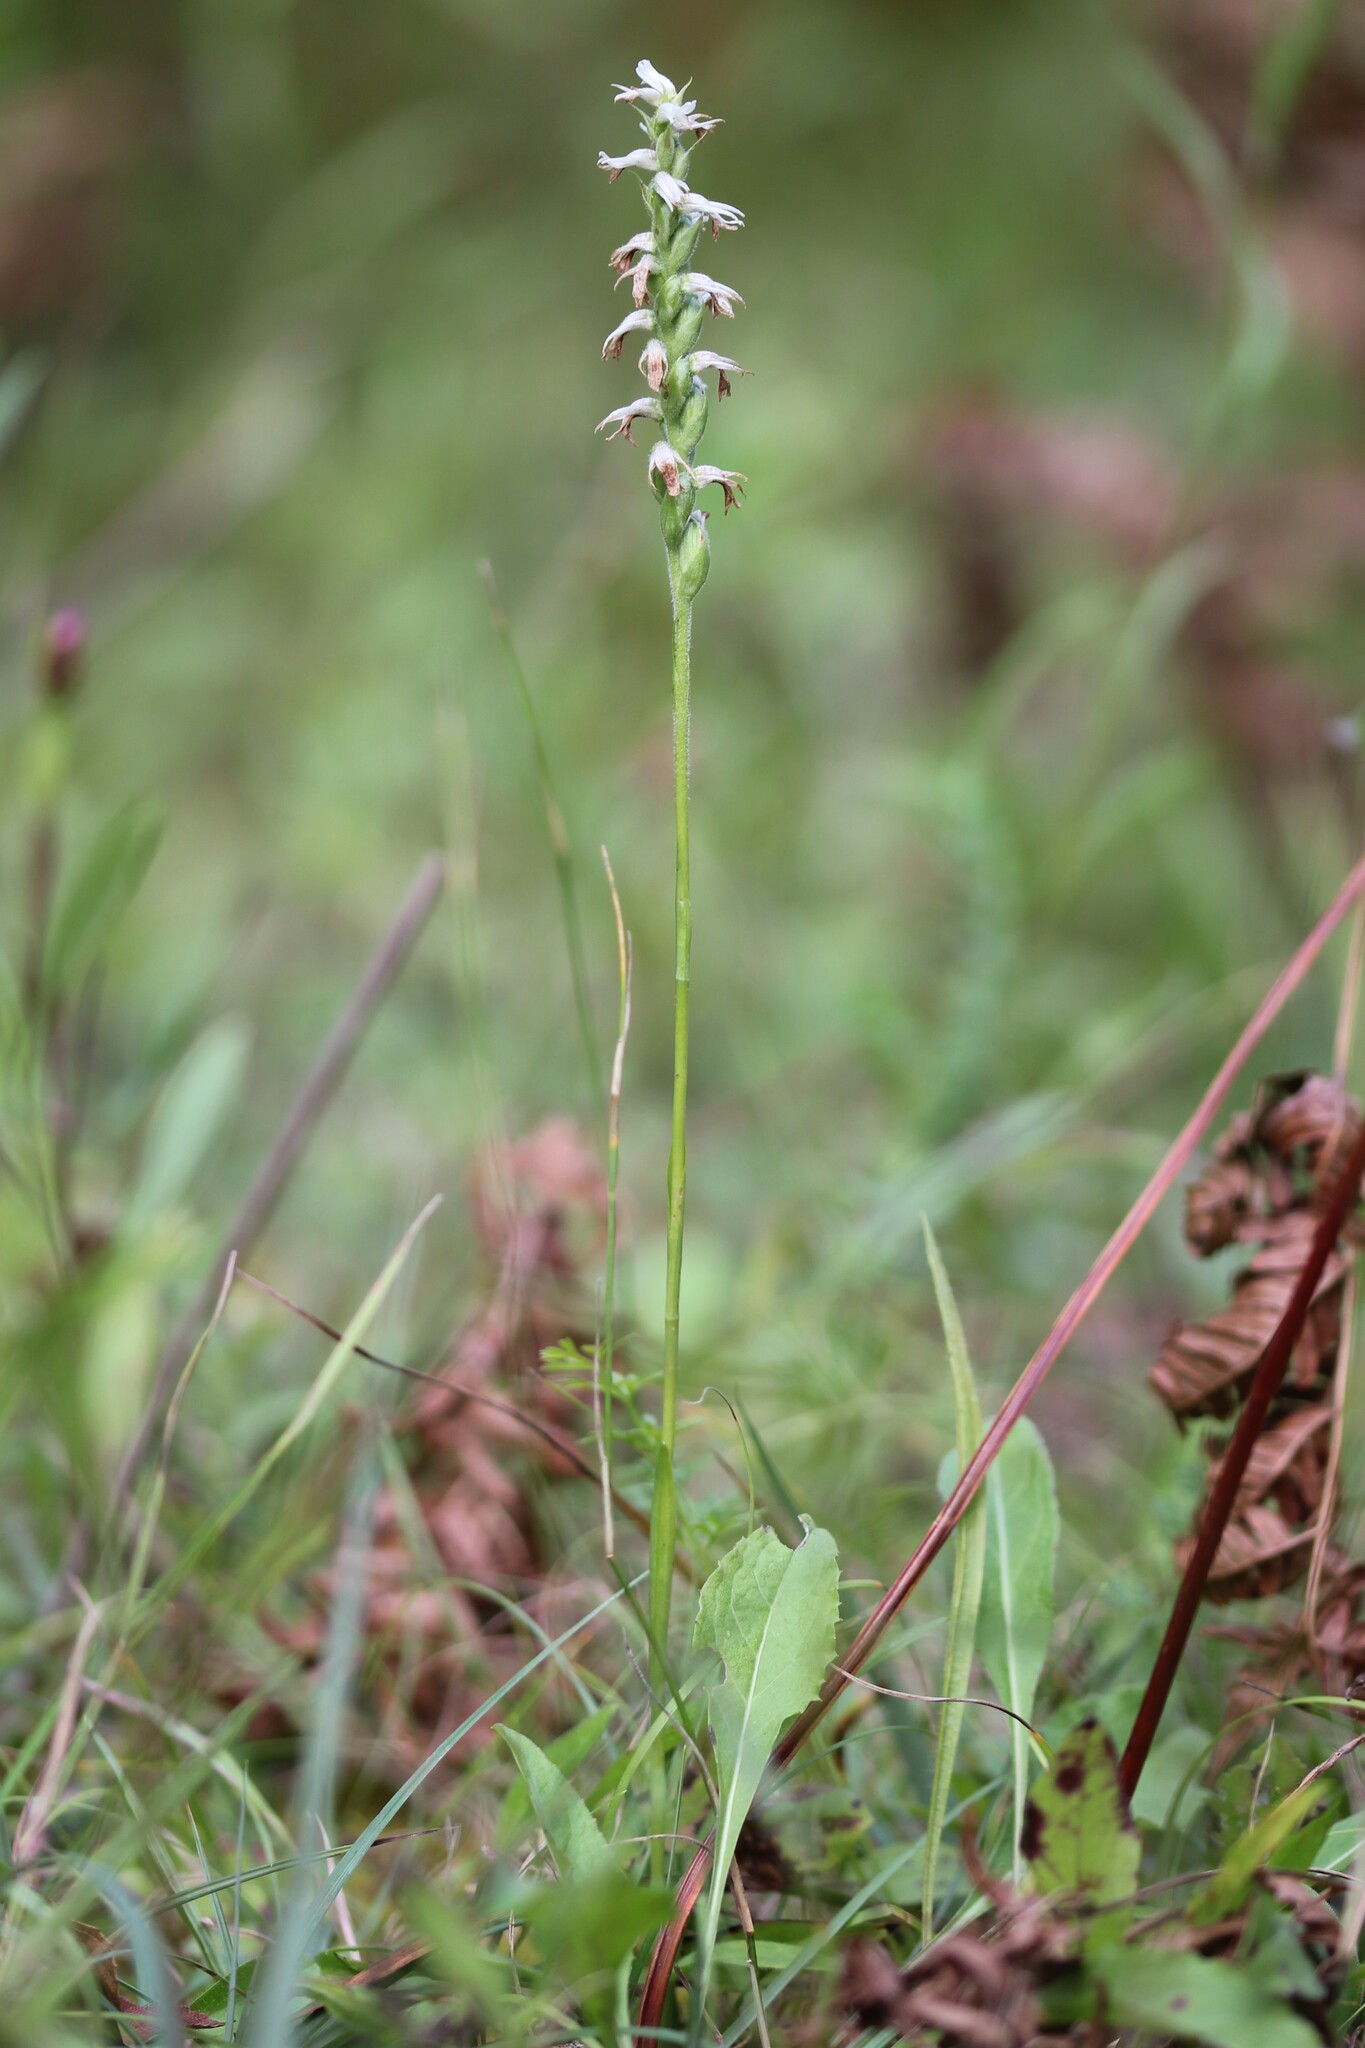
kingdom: Plantae
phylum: Tracheophyta
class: Liliopsida
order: Asparagales
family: Orchidaceae
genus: Spiranthes
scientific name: Spiranthes incurva
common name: Sphinx ladies'-tresses
